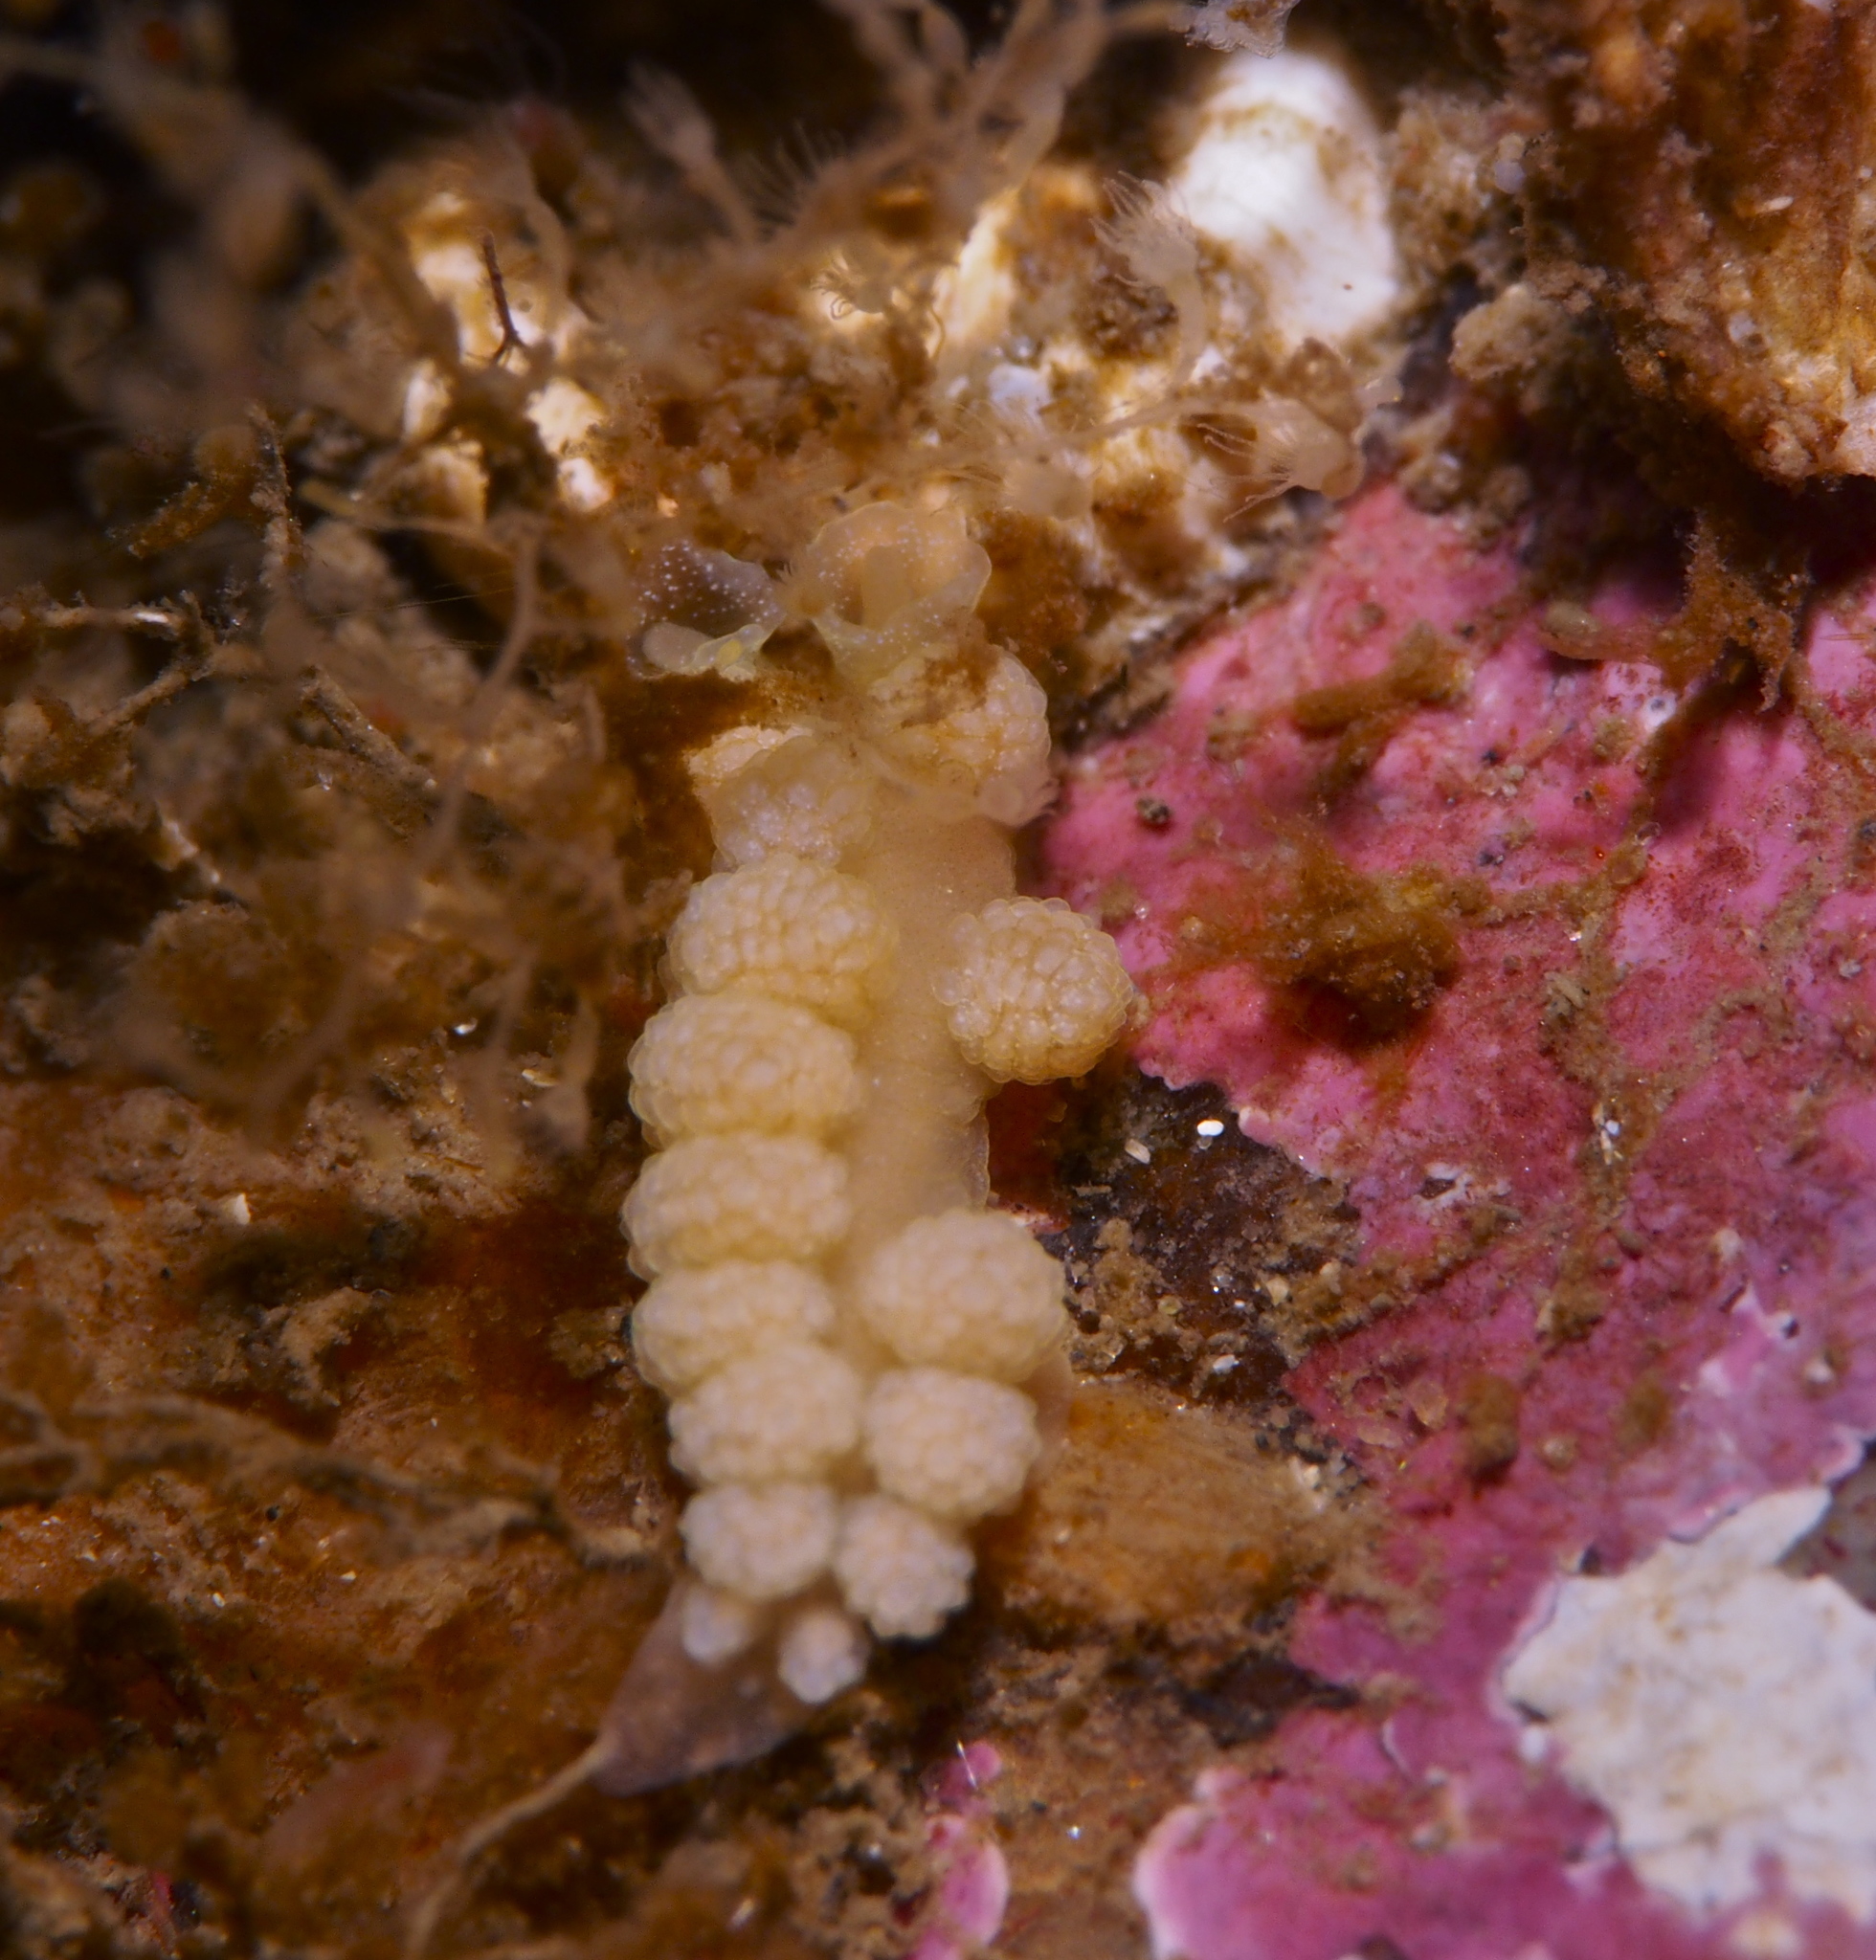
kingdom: Animalia
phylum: Mollusca
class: Gastropoda
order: Nudibranchia
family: Dotidae
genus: Doto
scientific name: Doto fragilis
